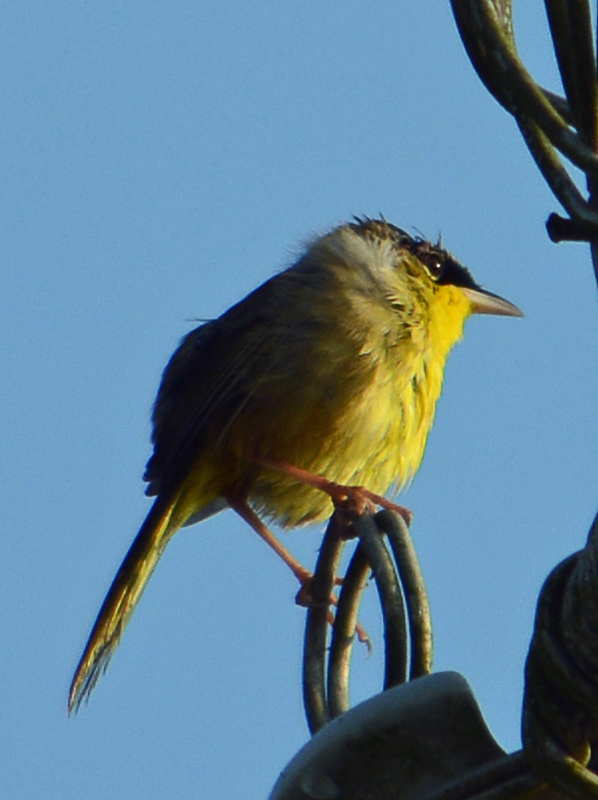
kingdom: Animalia
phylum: Chordata
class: Aves
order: Passeriformes
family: Parulidae
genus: Geothlypis
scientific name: Geothlypis poliocephala
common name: Gray-crowned yellowthroat
